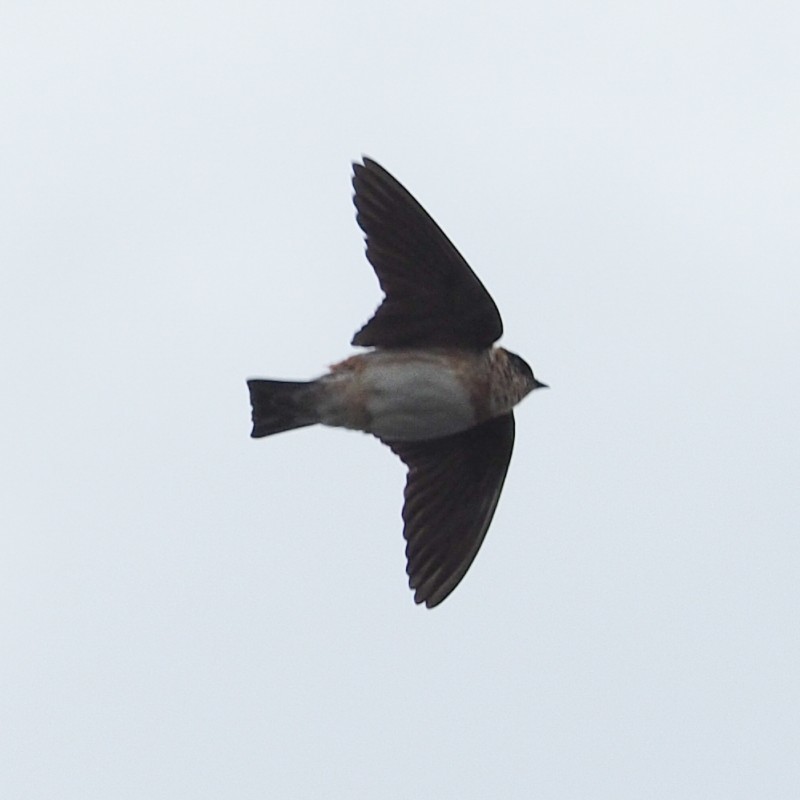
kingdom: Animalia
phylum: Chordata
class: Aves
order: Passeriformes
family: Hirundinidae
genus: Petrochelidon
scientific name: Petrochelidon fulva
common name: Cave swallow
